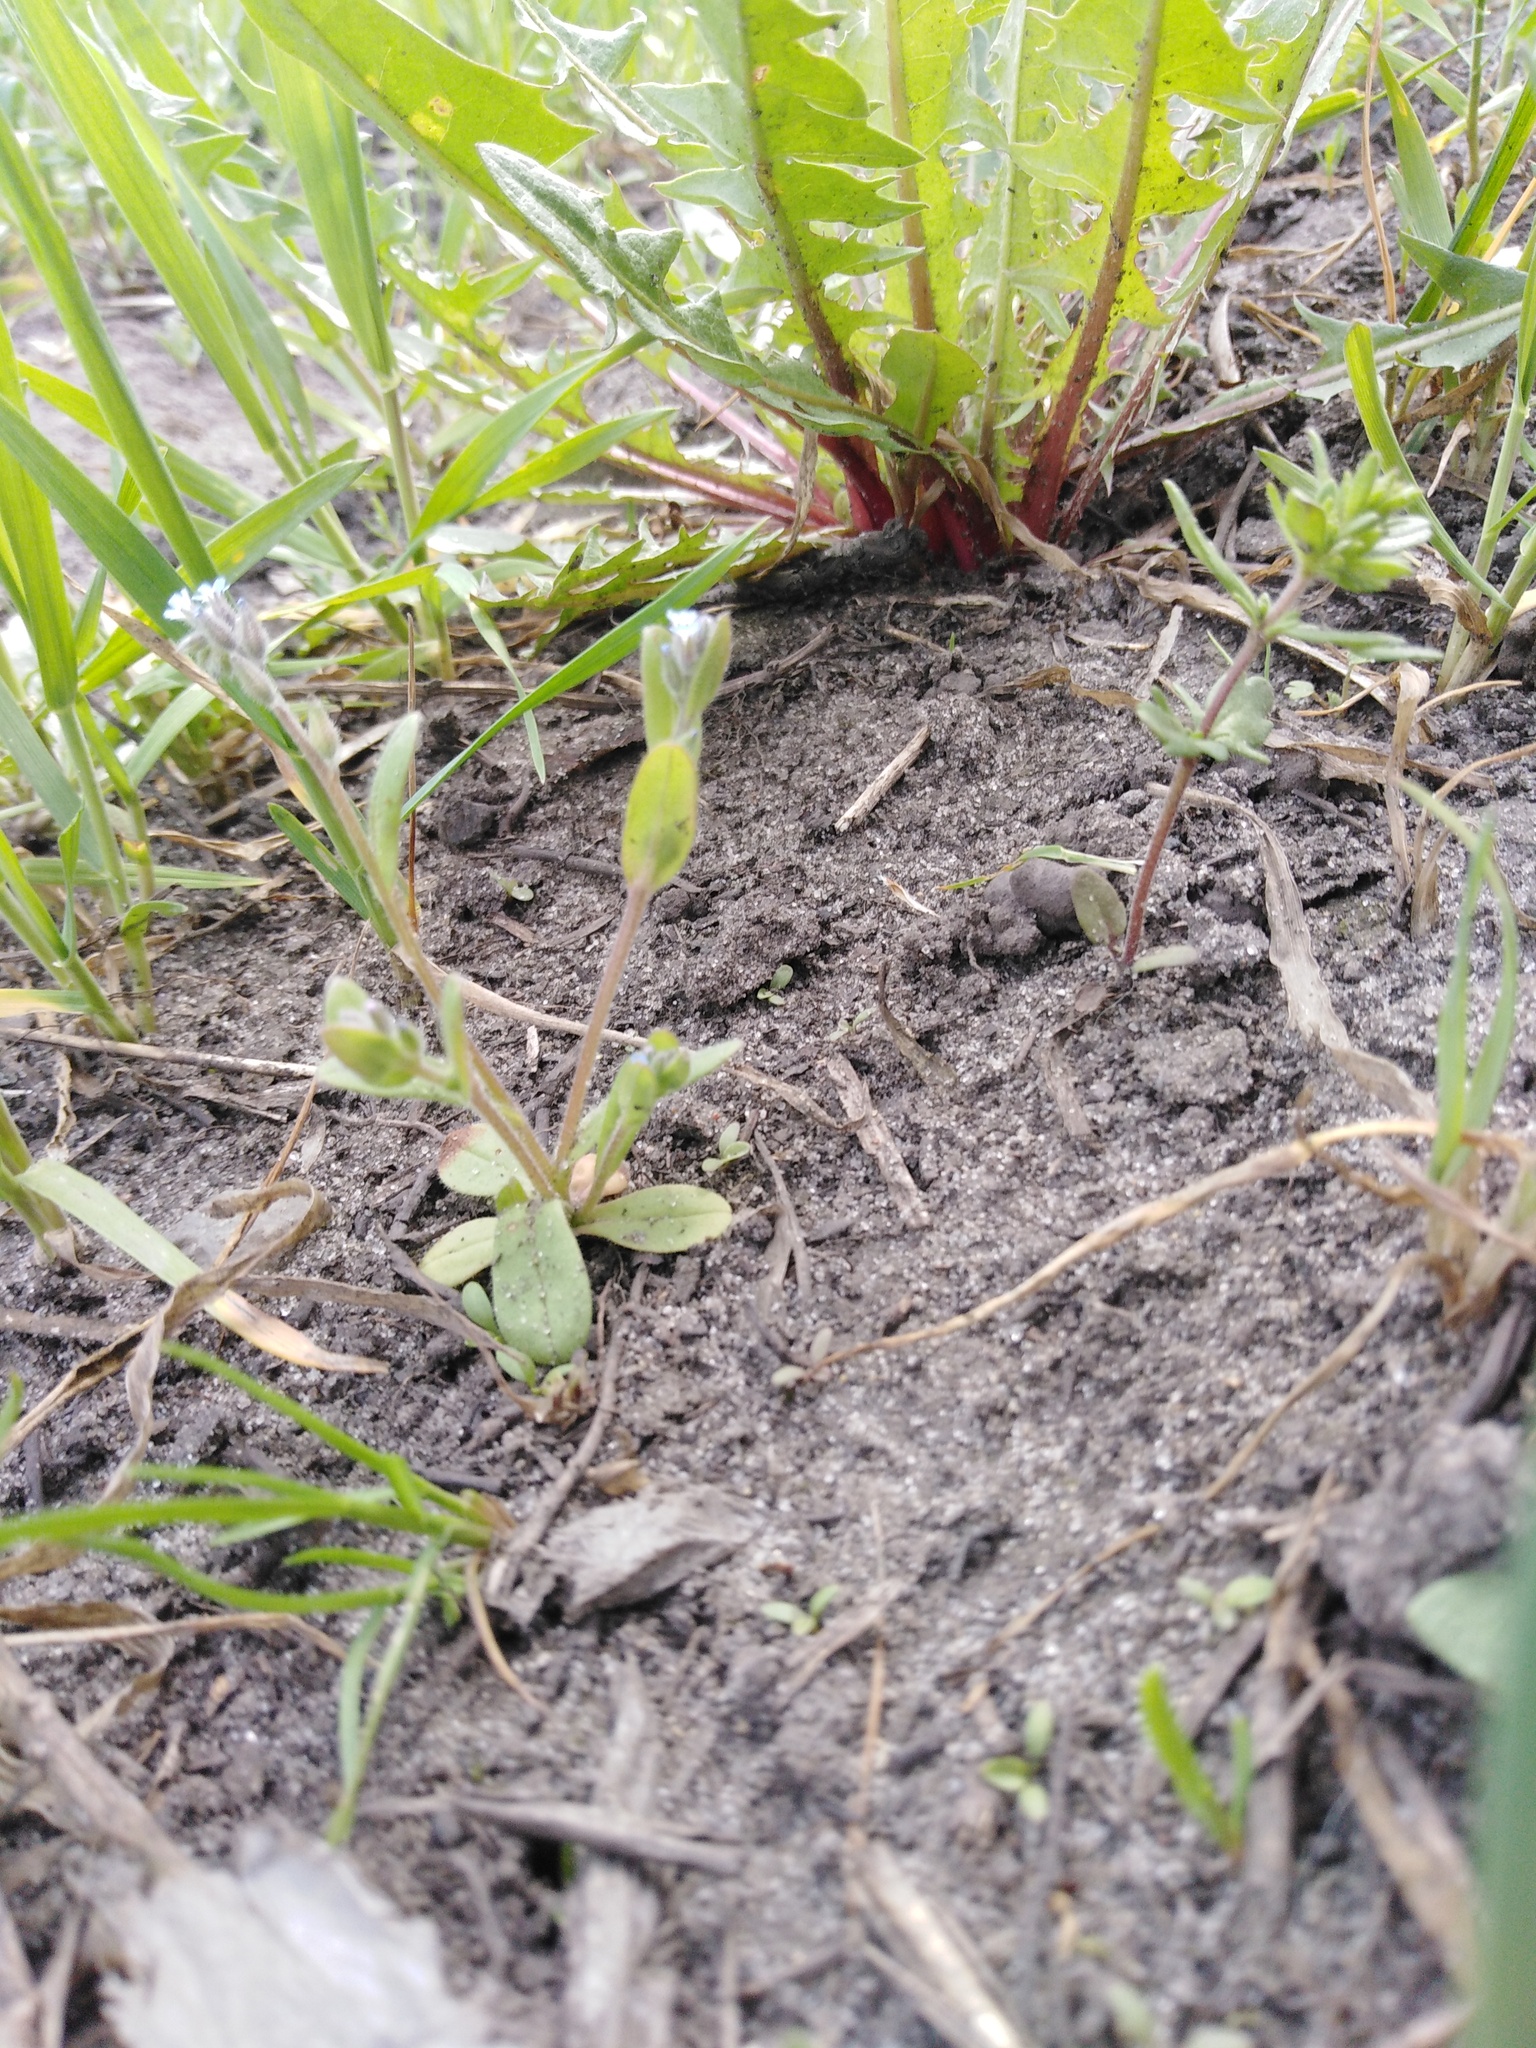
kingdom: Plantae
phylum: Tracheophyta
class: Magnoliopsida
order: Boraginales
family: Boraginaceae
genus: Myosotis
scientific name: Myosotis stricta
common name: Strict forget-me-not
